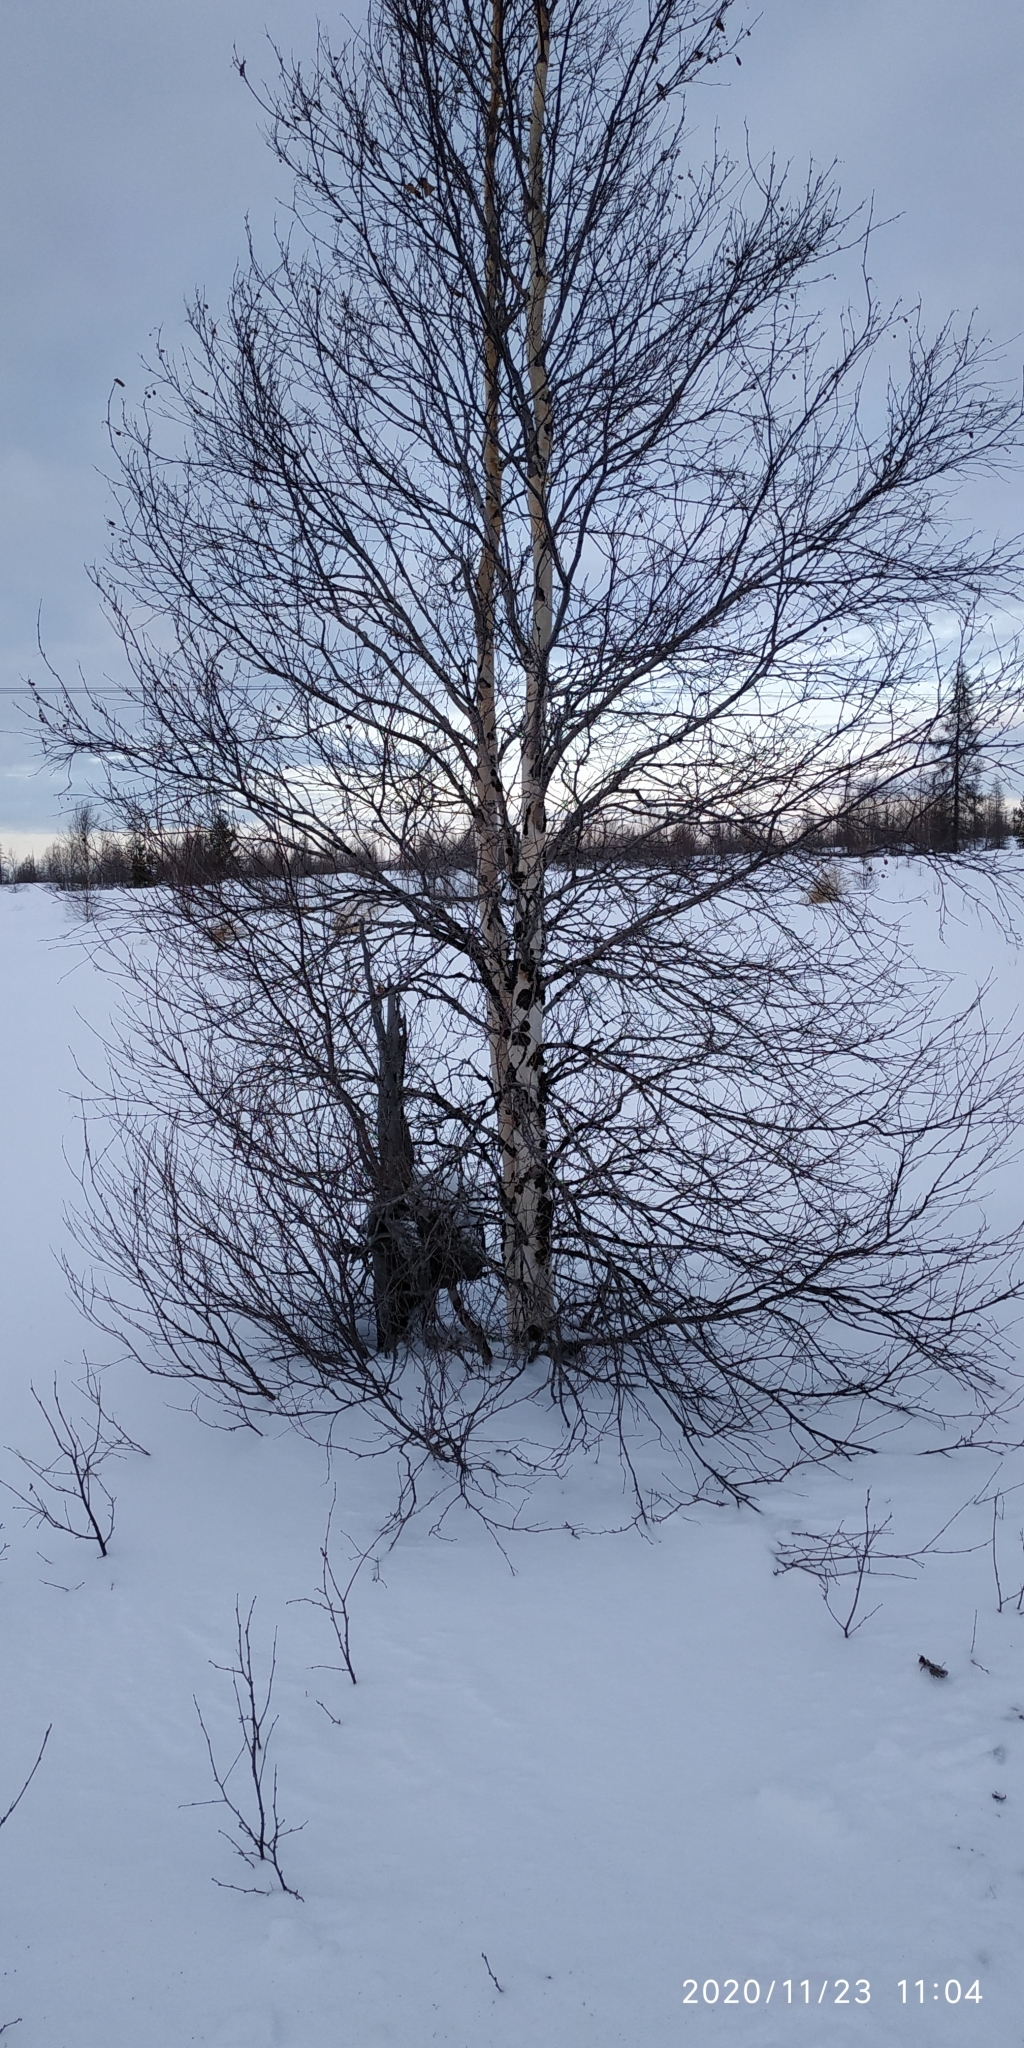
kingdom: Plantae
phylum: Tracheophyta
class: Magnoliopsida
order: Fagales
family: Betulaceae
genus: Betula
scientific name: Betula pubescens
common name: Downy birch
